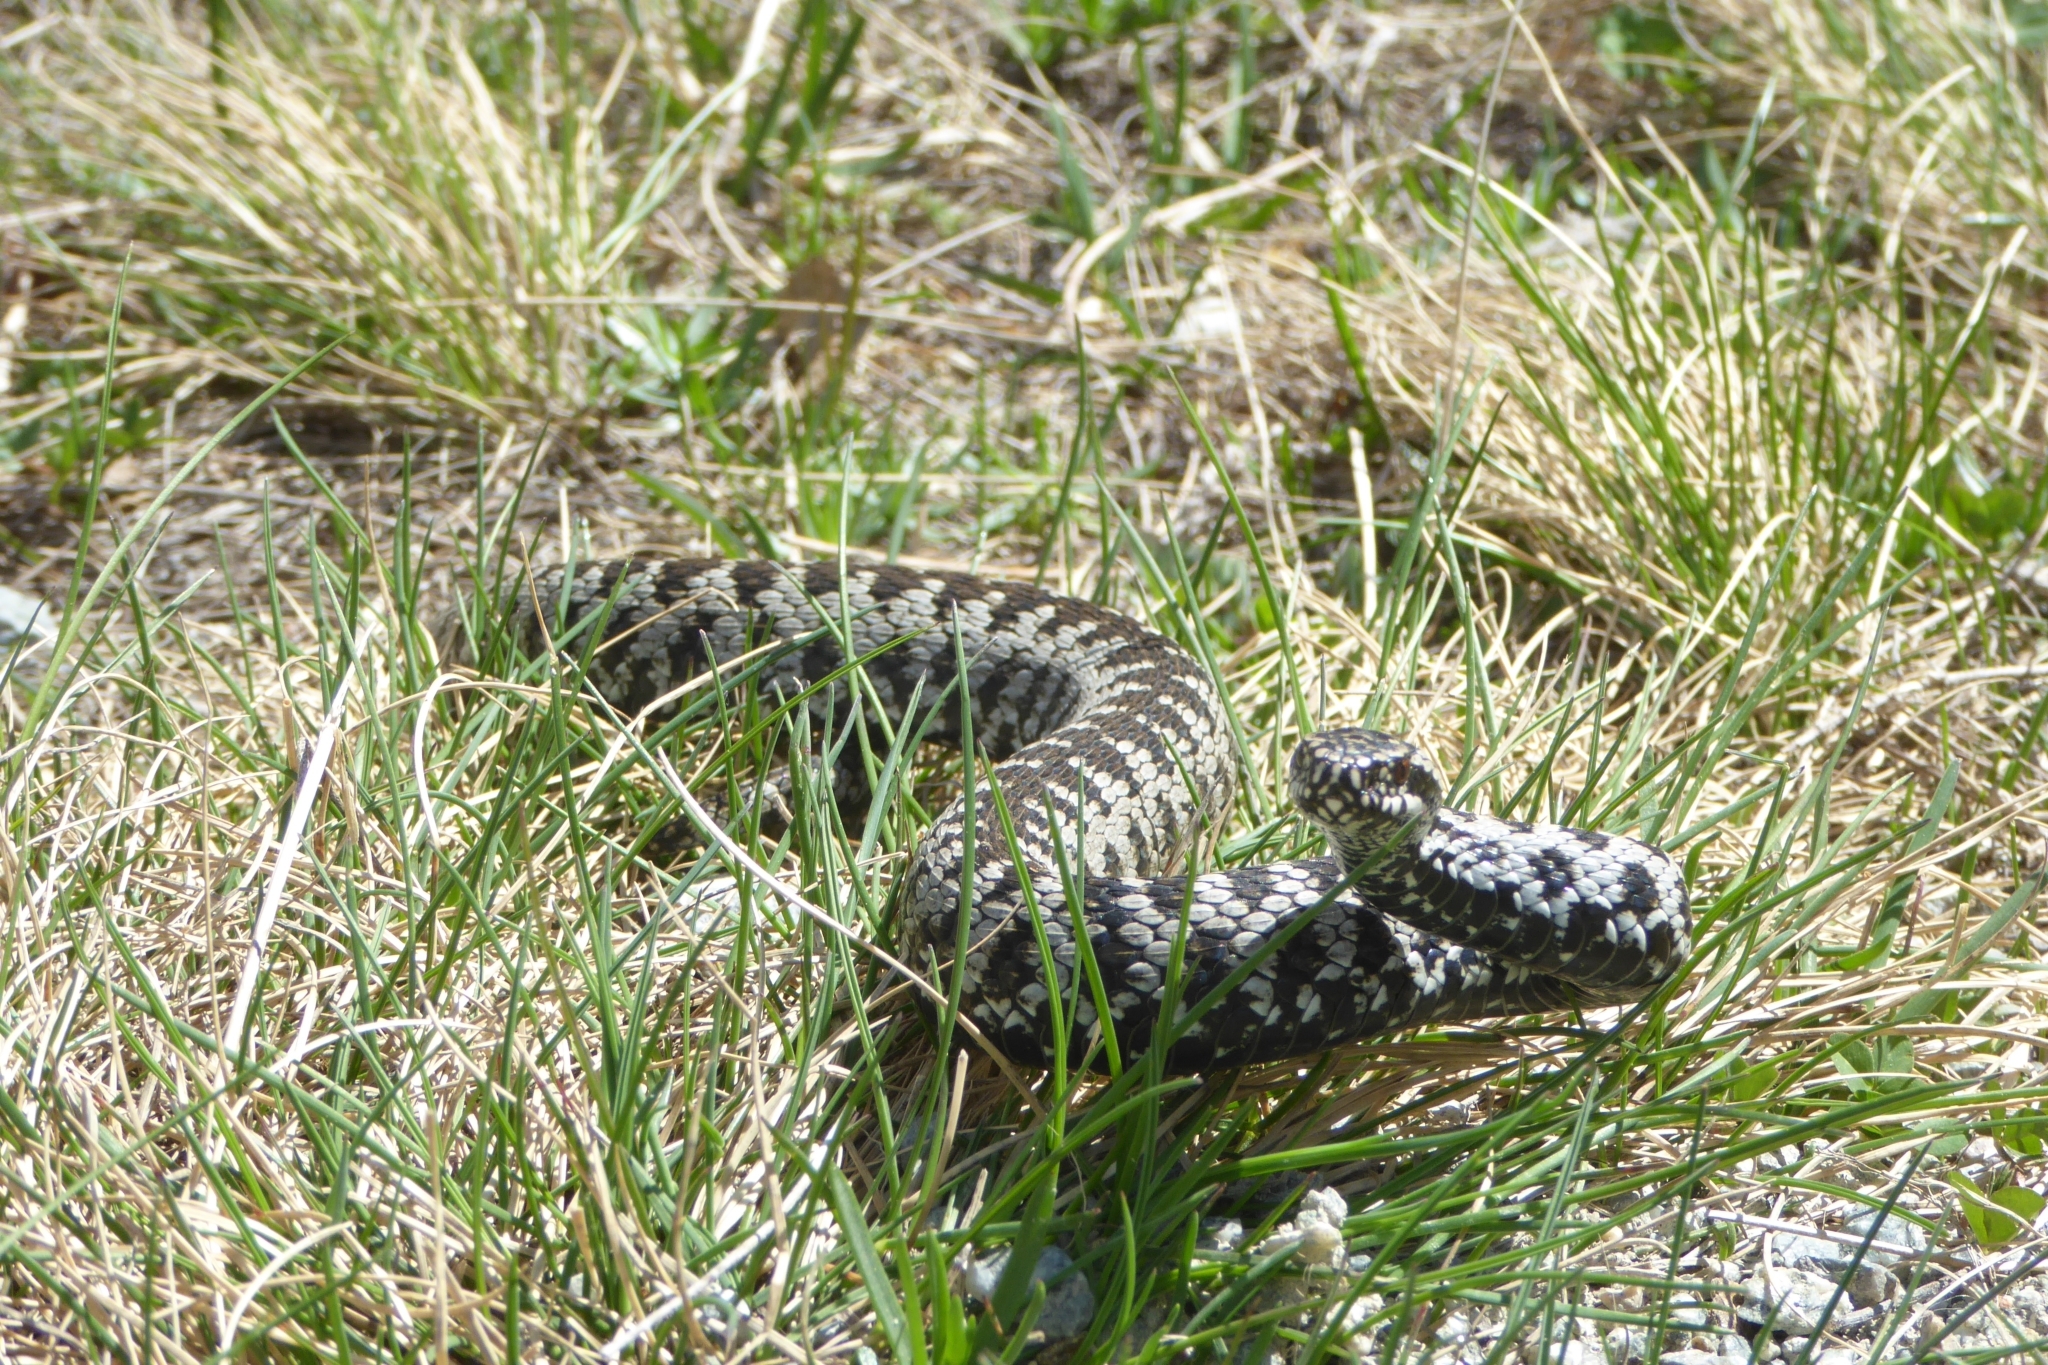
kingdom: Animalia
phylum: Chordata
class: Squamata
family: Viperidae
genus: Vipera
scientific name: Vipera berus
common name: Adder
